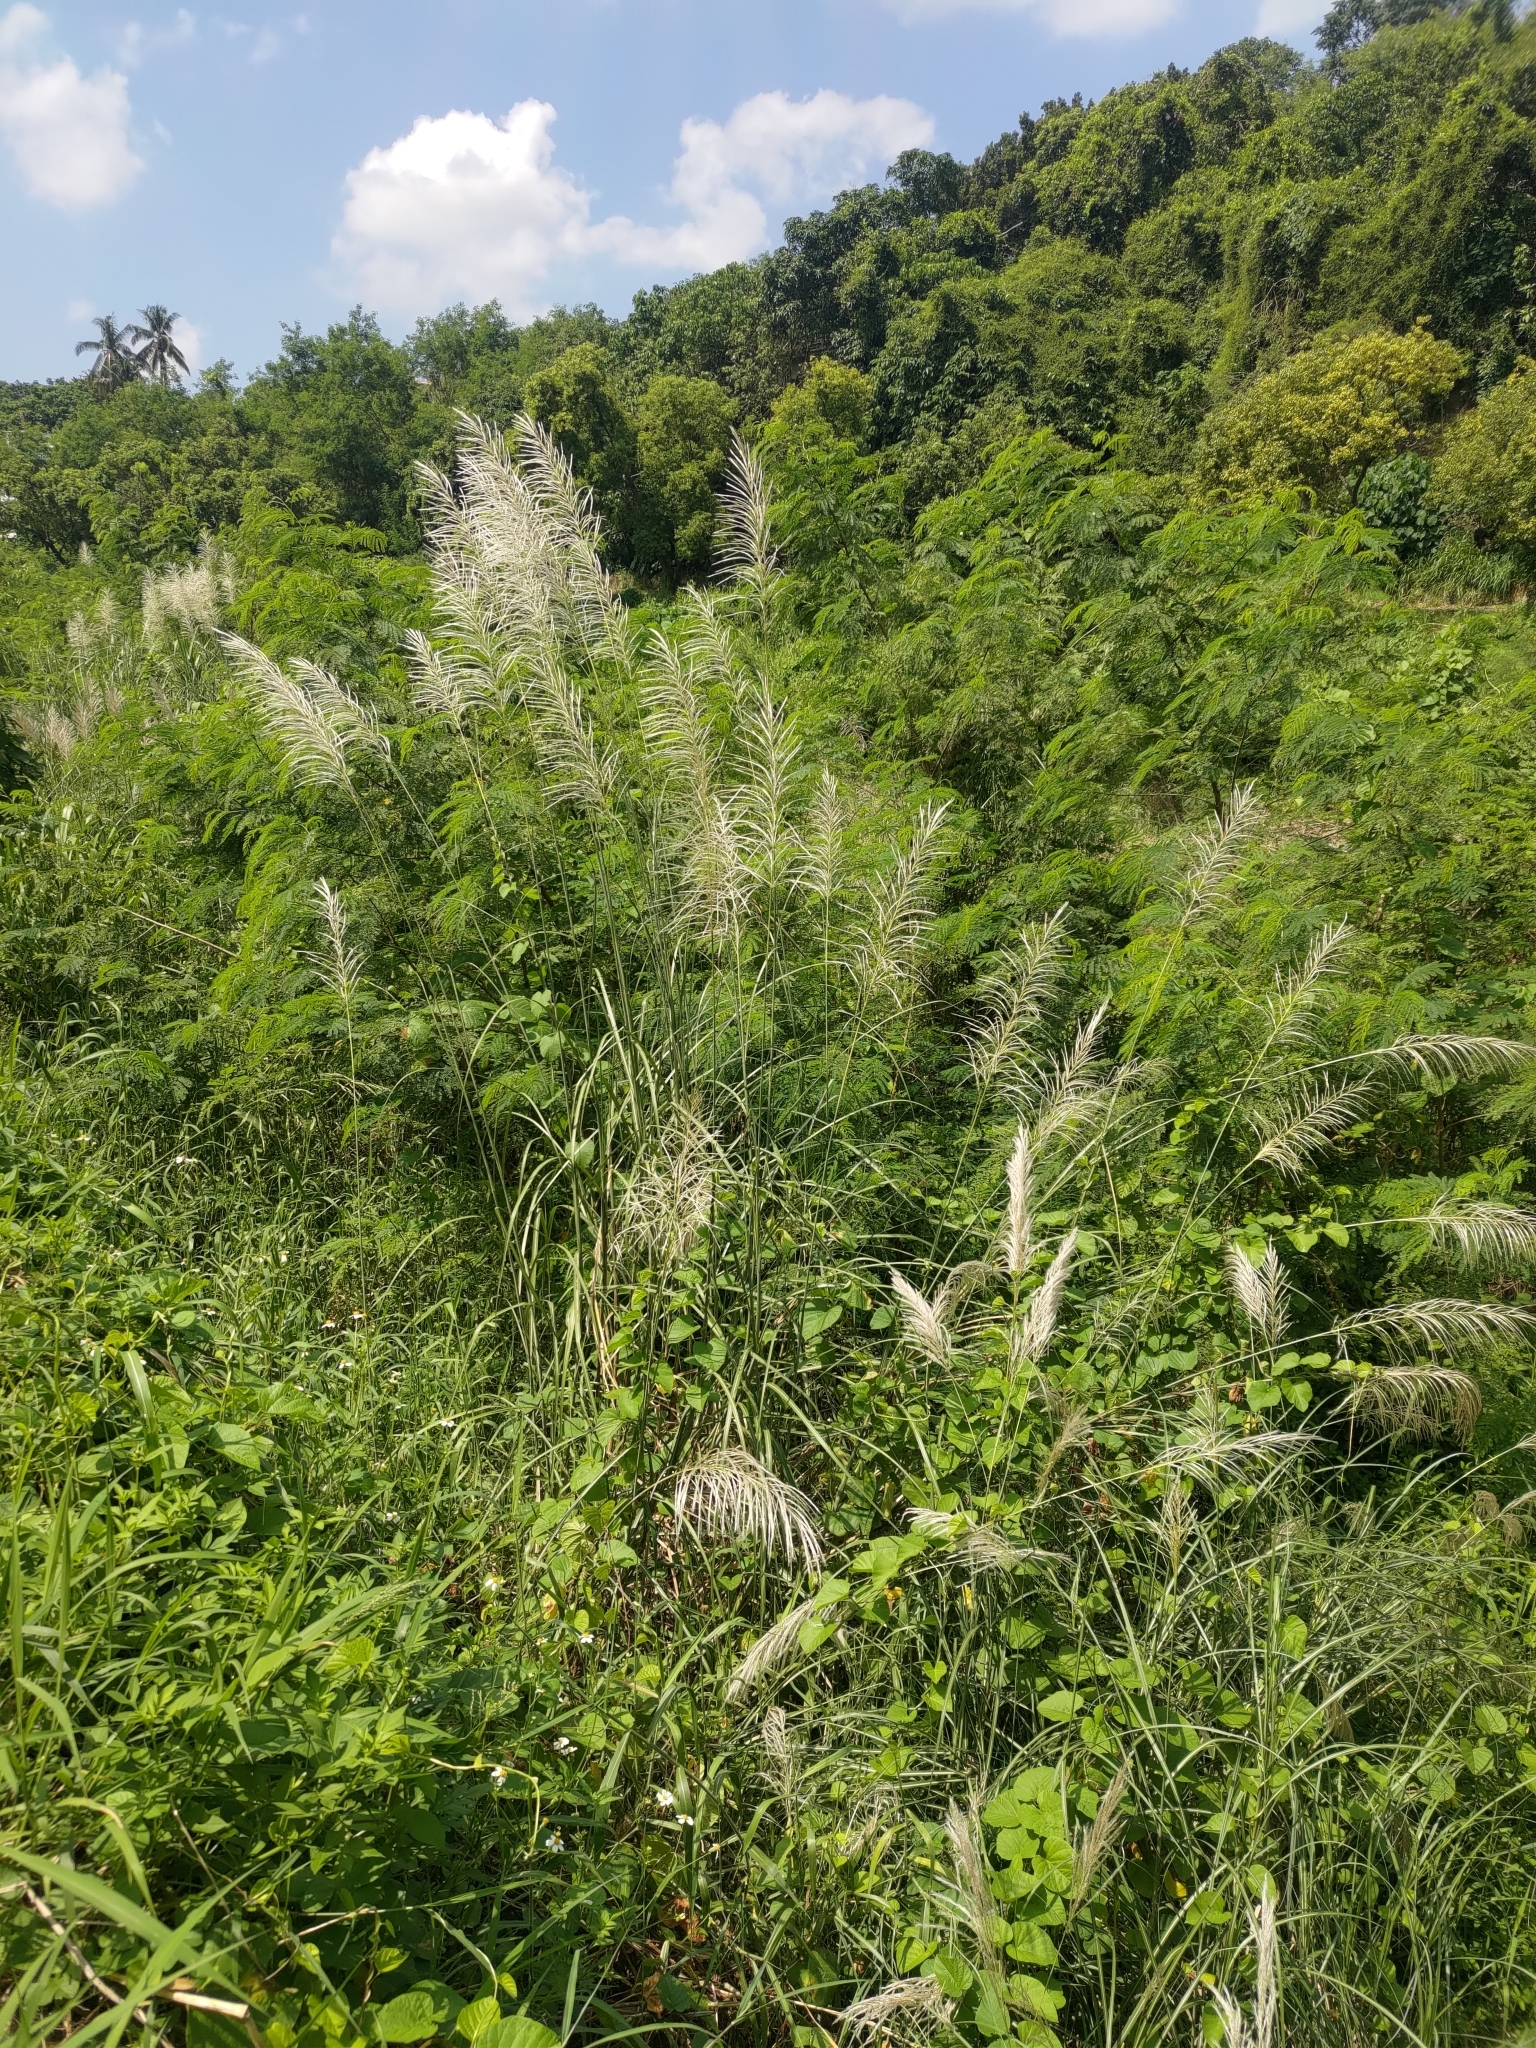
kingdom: Plantae
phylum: Tracheophyta
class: Liliopsida
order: Poales
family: Poaceae
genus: Saccharum
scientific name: Saccharum spontaneum
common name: Wild sugarcane
